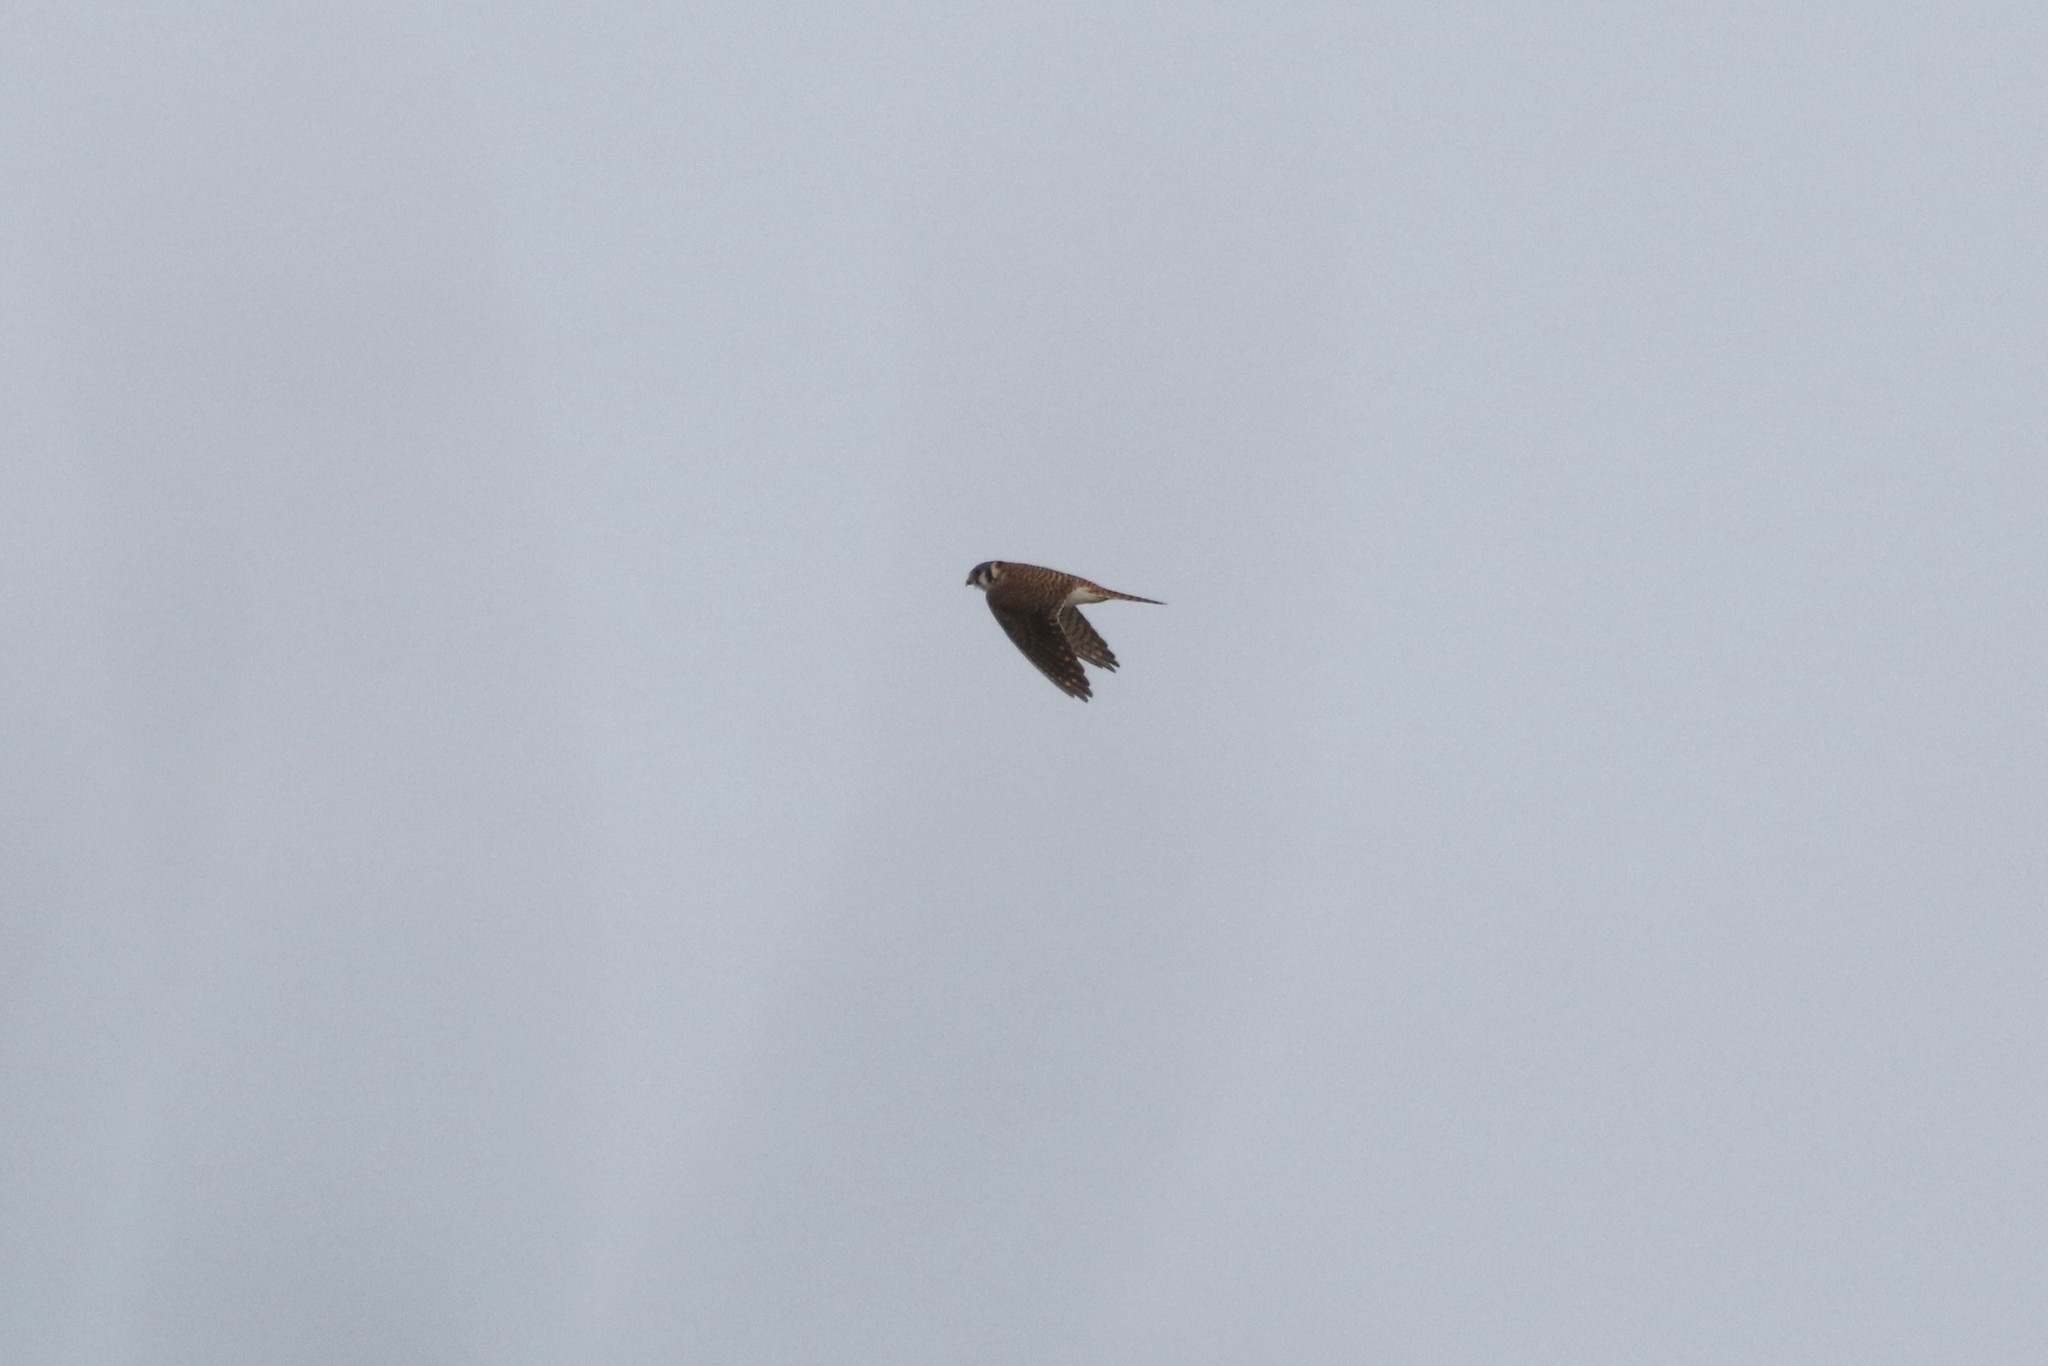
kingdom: Animalia
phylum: Chordata
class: Aves
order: Falconiformes
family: Falconidae
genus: Falco
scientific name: Falco sparverius
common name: American kestrel
